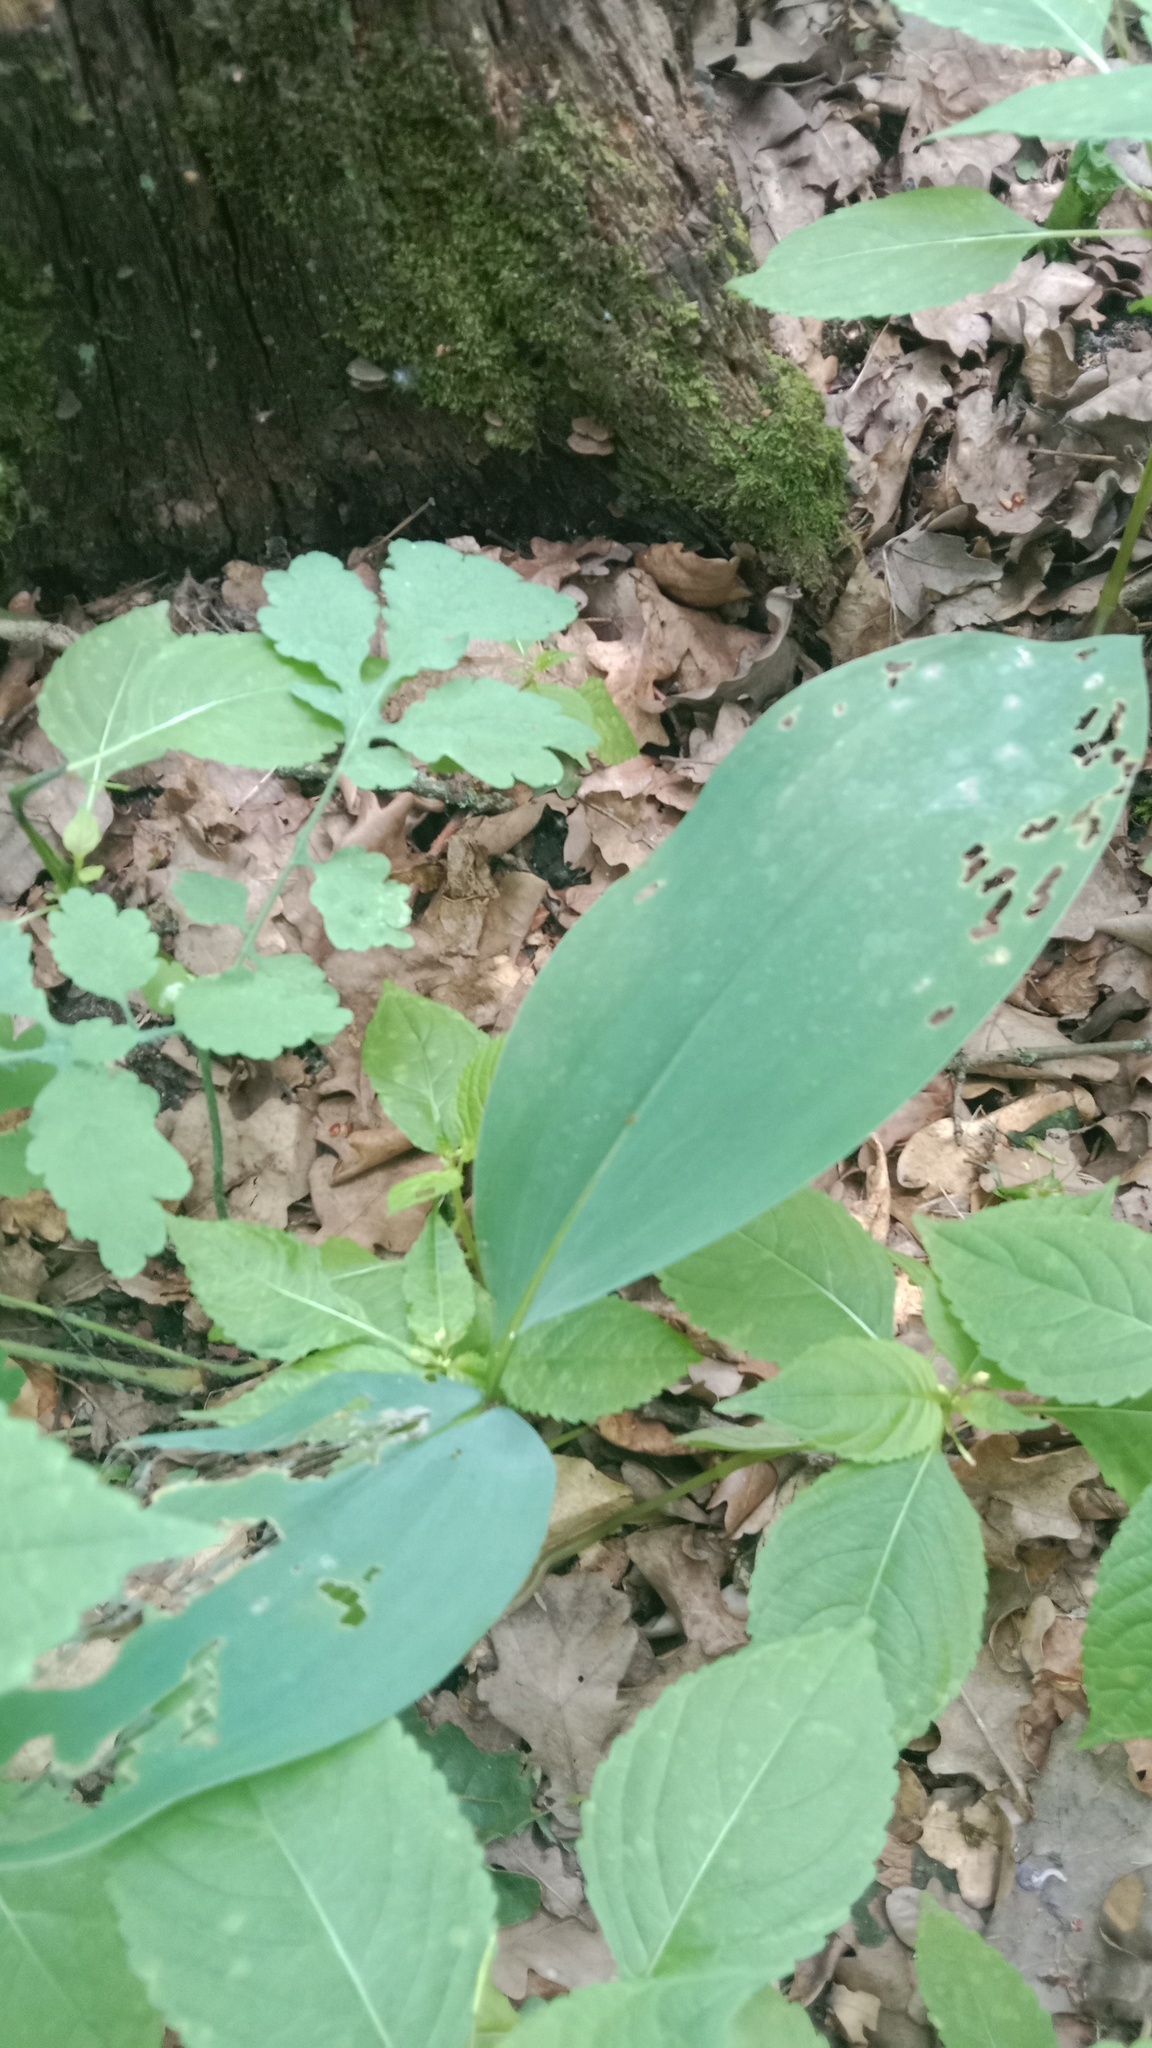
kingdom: Plantae
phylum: Tracheophyta
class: Liliopsida
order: Asparagales
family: Asparagaceae
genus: Convallaria
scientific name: Convallaria majalis
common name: Lily-of-the-valley
